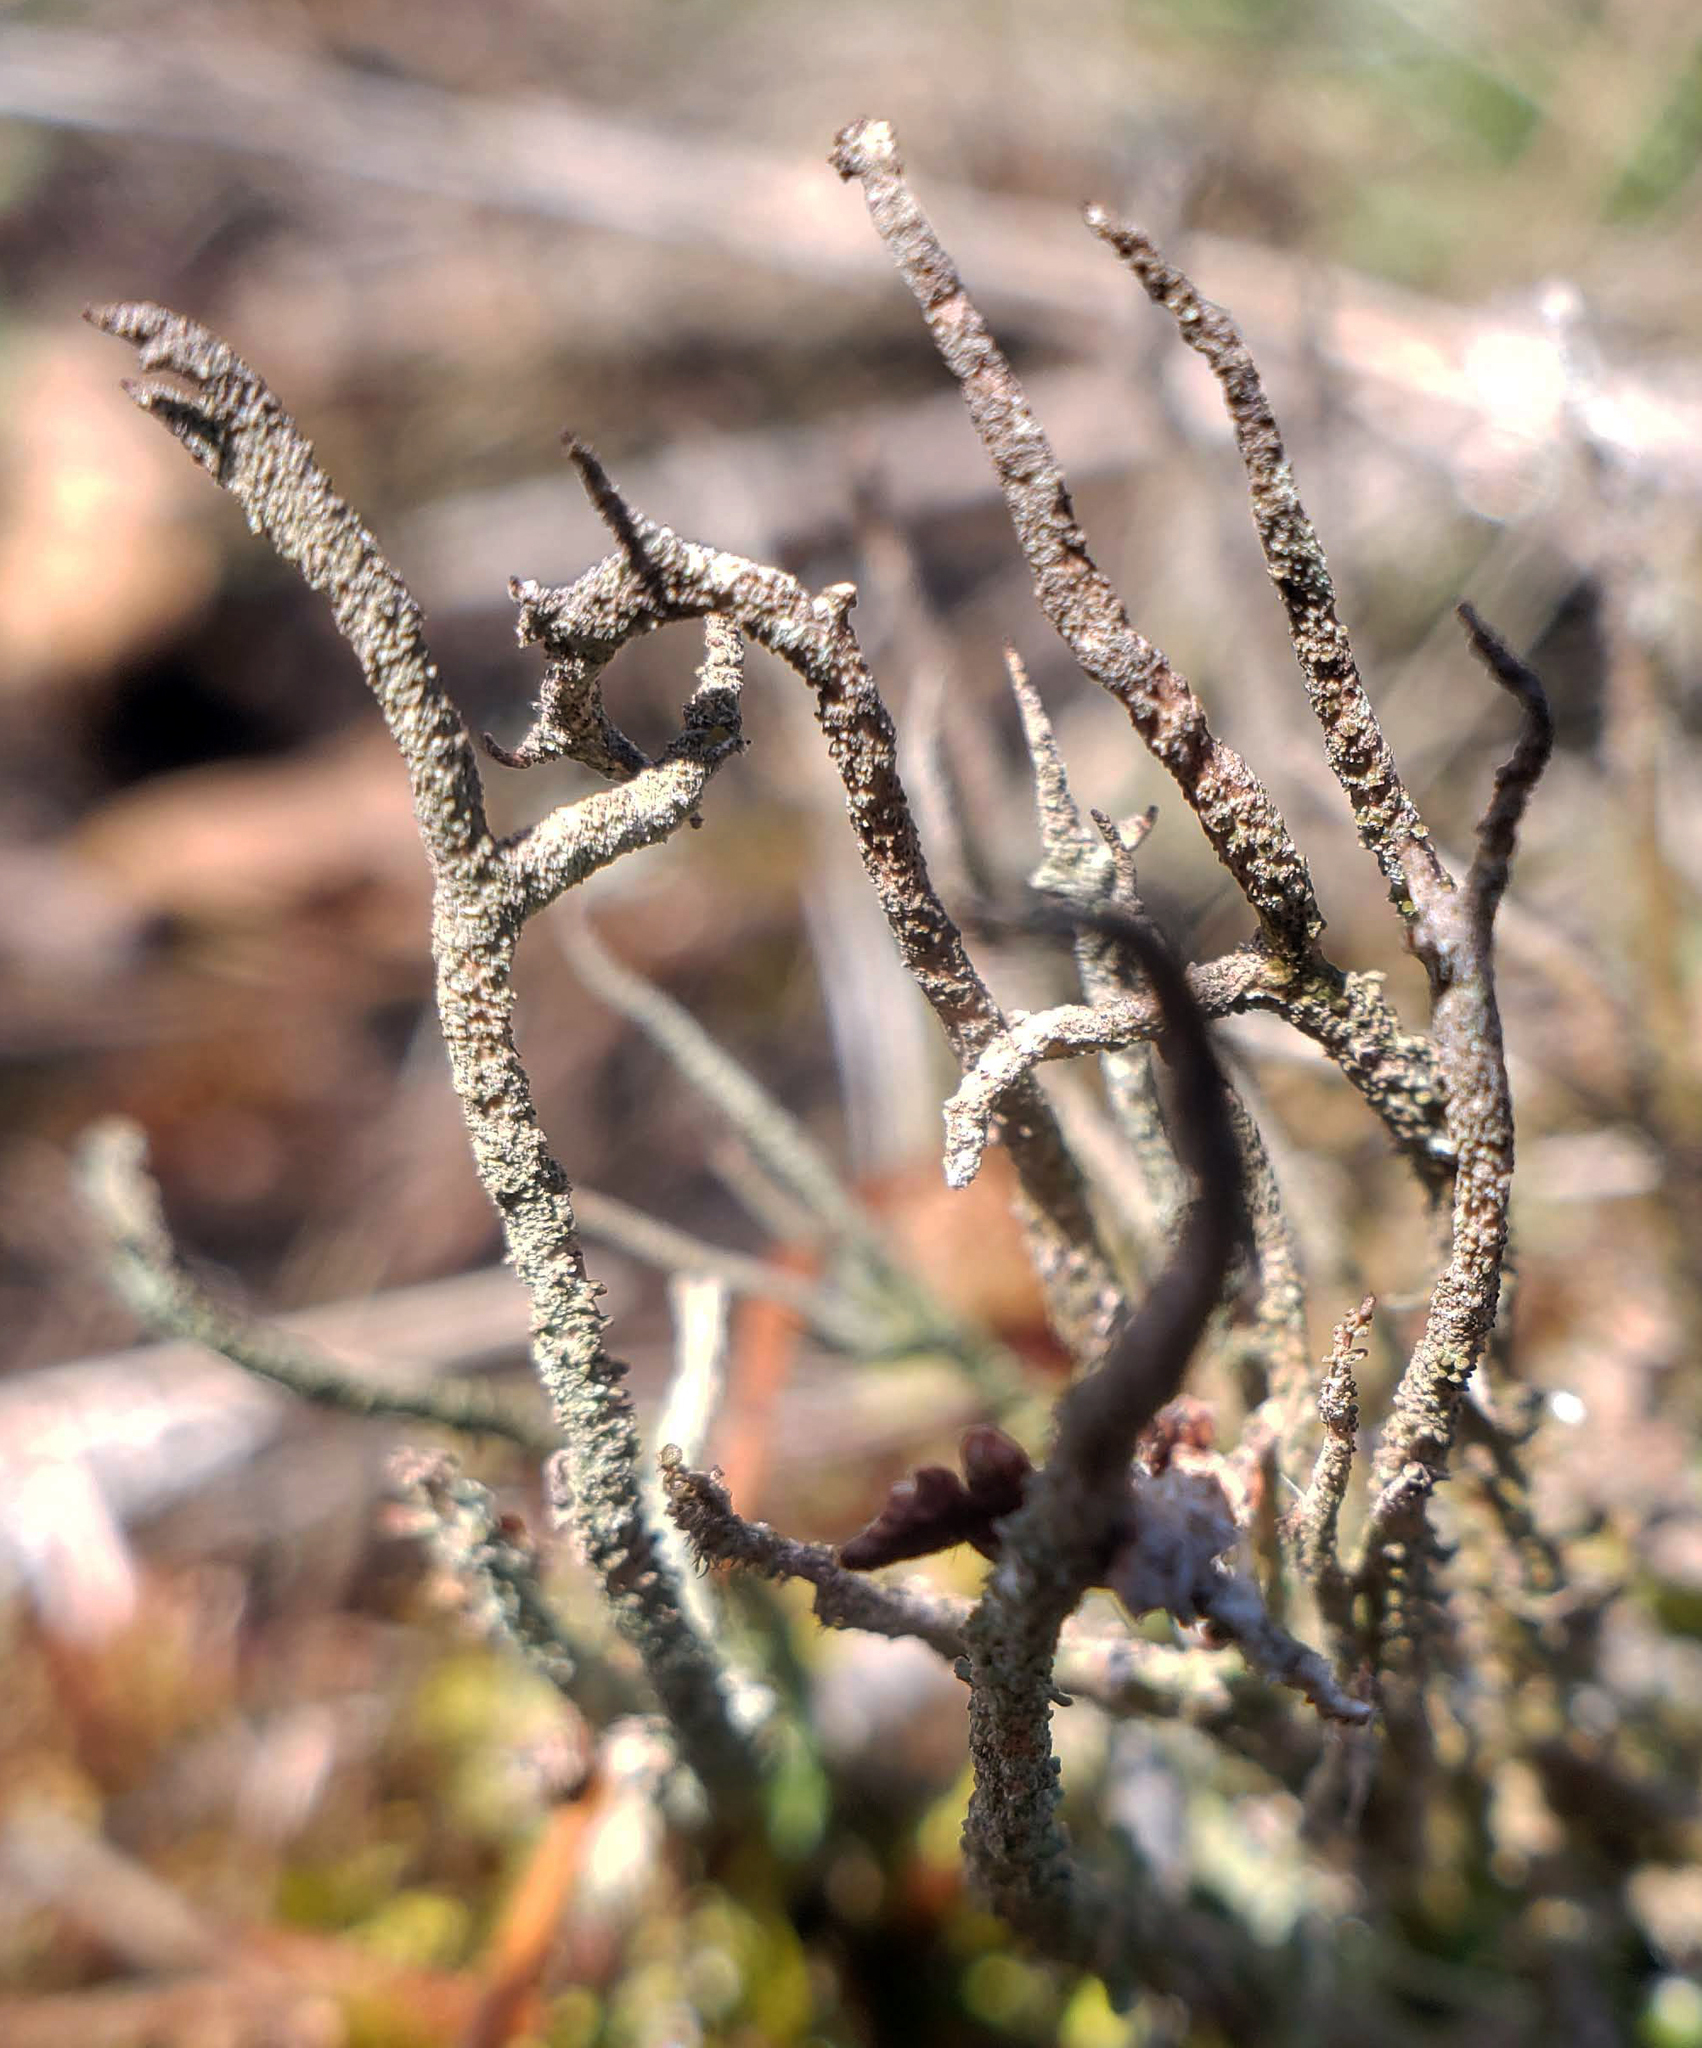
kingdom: Fungi
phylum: Ascomycota
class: Lecanoromycetes
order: Lecanorales
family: Cladoniaceae
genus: Cladonia
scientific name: Cladonia rei
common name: Wand lichen
